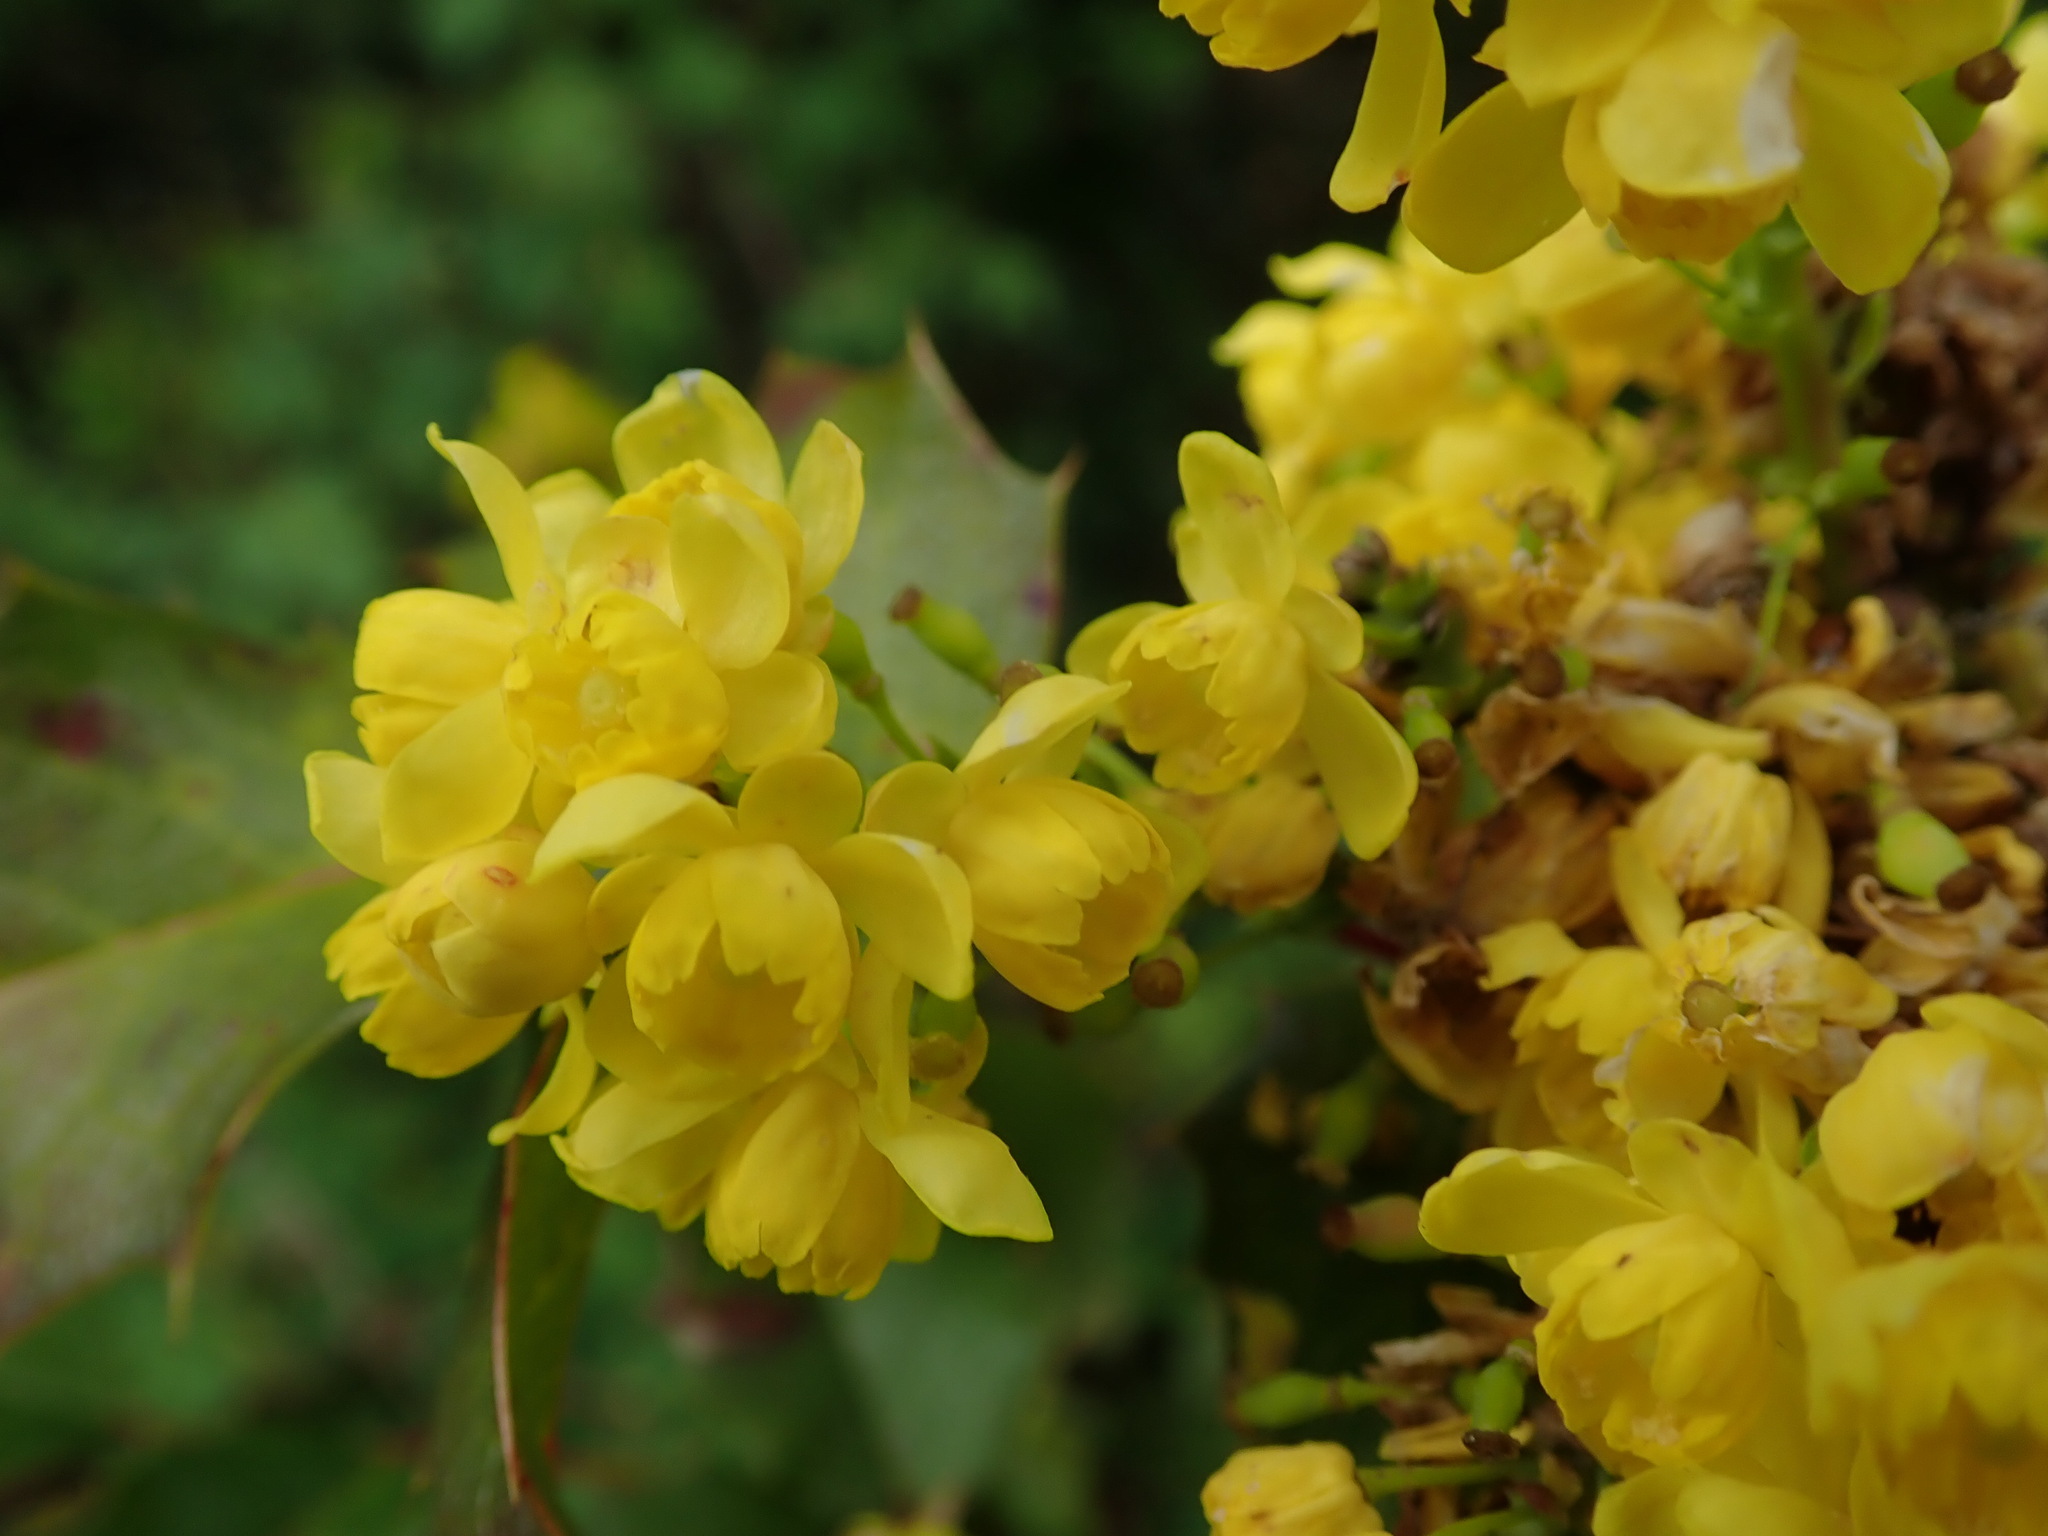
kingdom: Plantae
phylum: Tracheophyta
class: Magnoliopsida
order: Ranunculales
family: Berberidaceae
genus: Mahonia
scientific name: Mahonia aquifolium
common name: Oregon-grape
